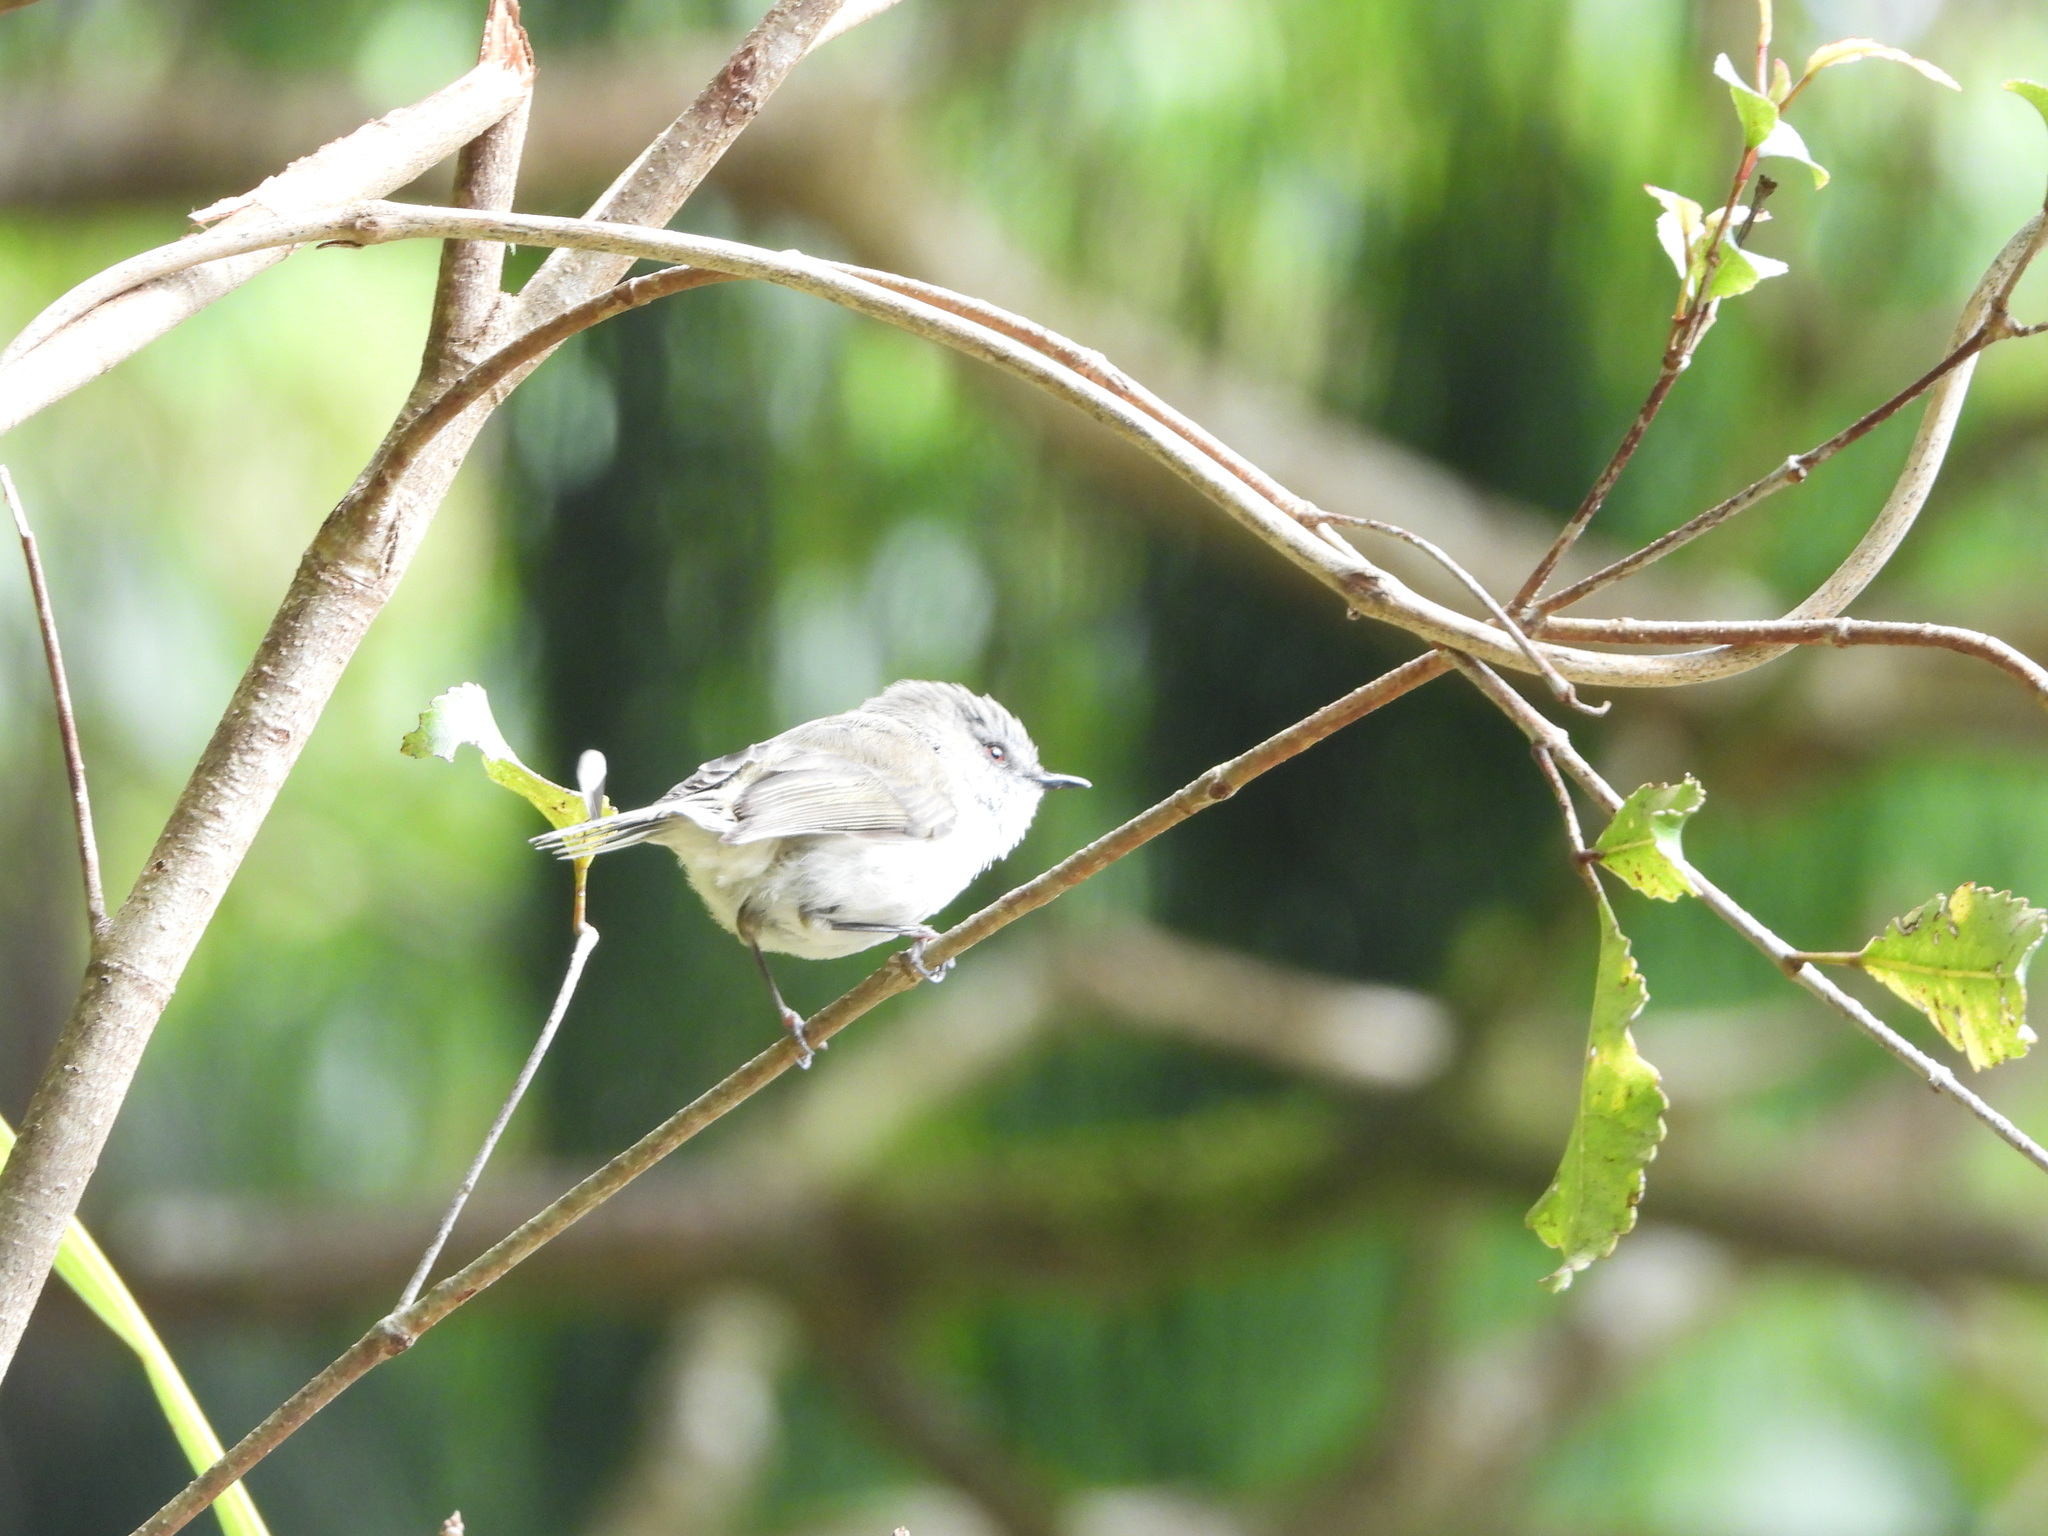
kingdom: Animalia
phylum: Chordata
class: Aves
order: Passeriformes
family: Acanthizidae
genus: Gerygone
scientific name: Gerygone igata
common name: Grey gerygone
